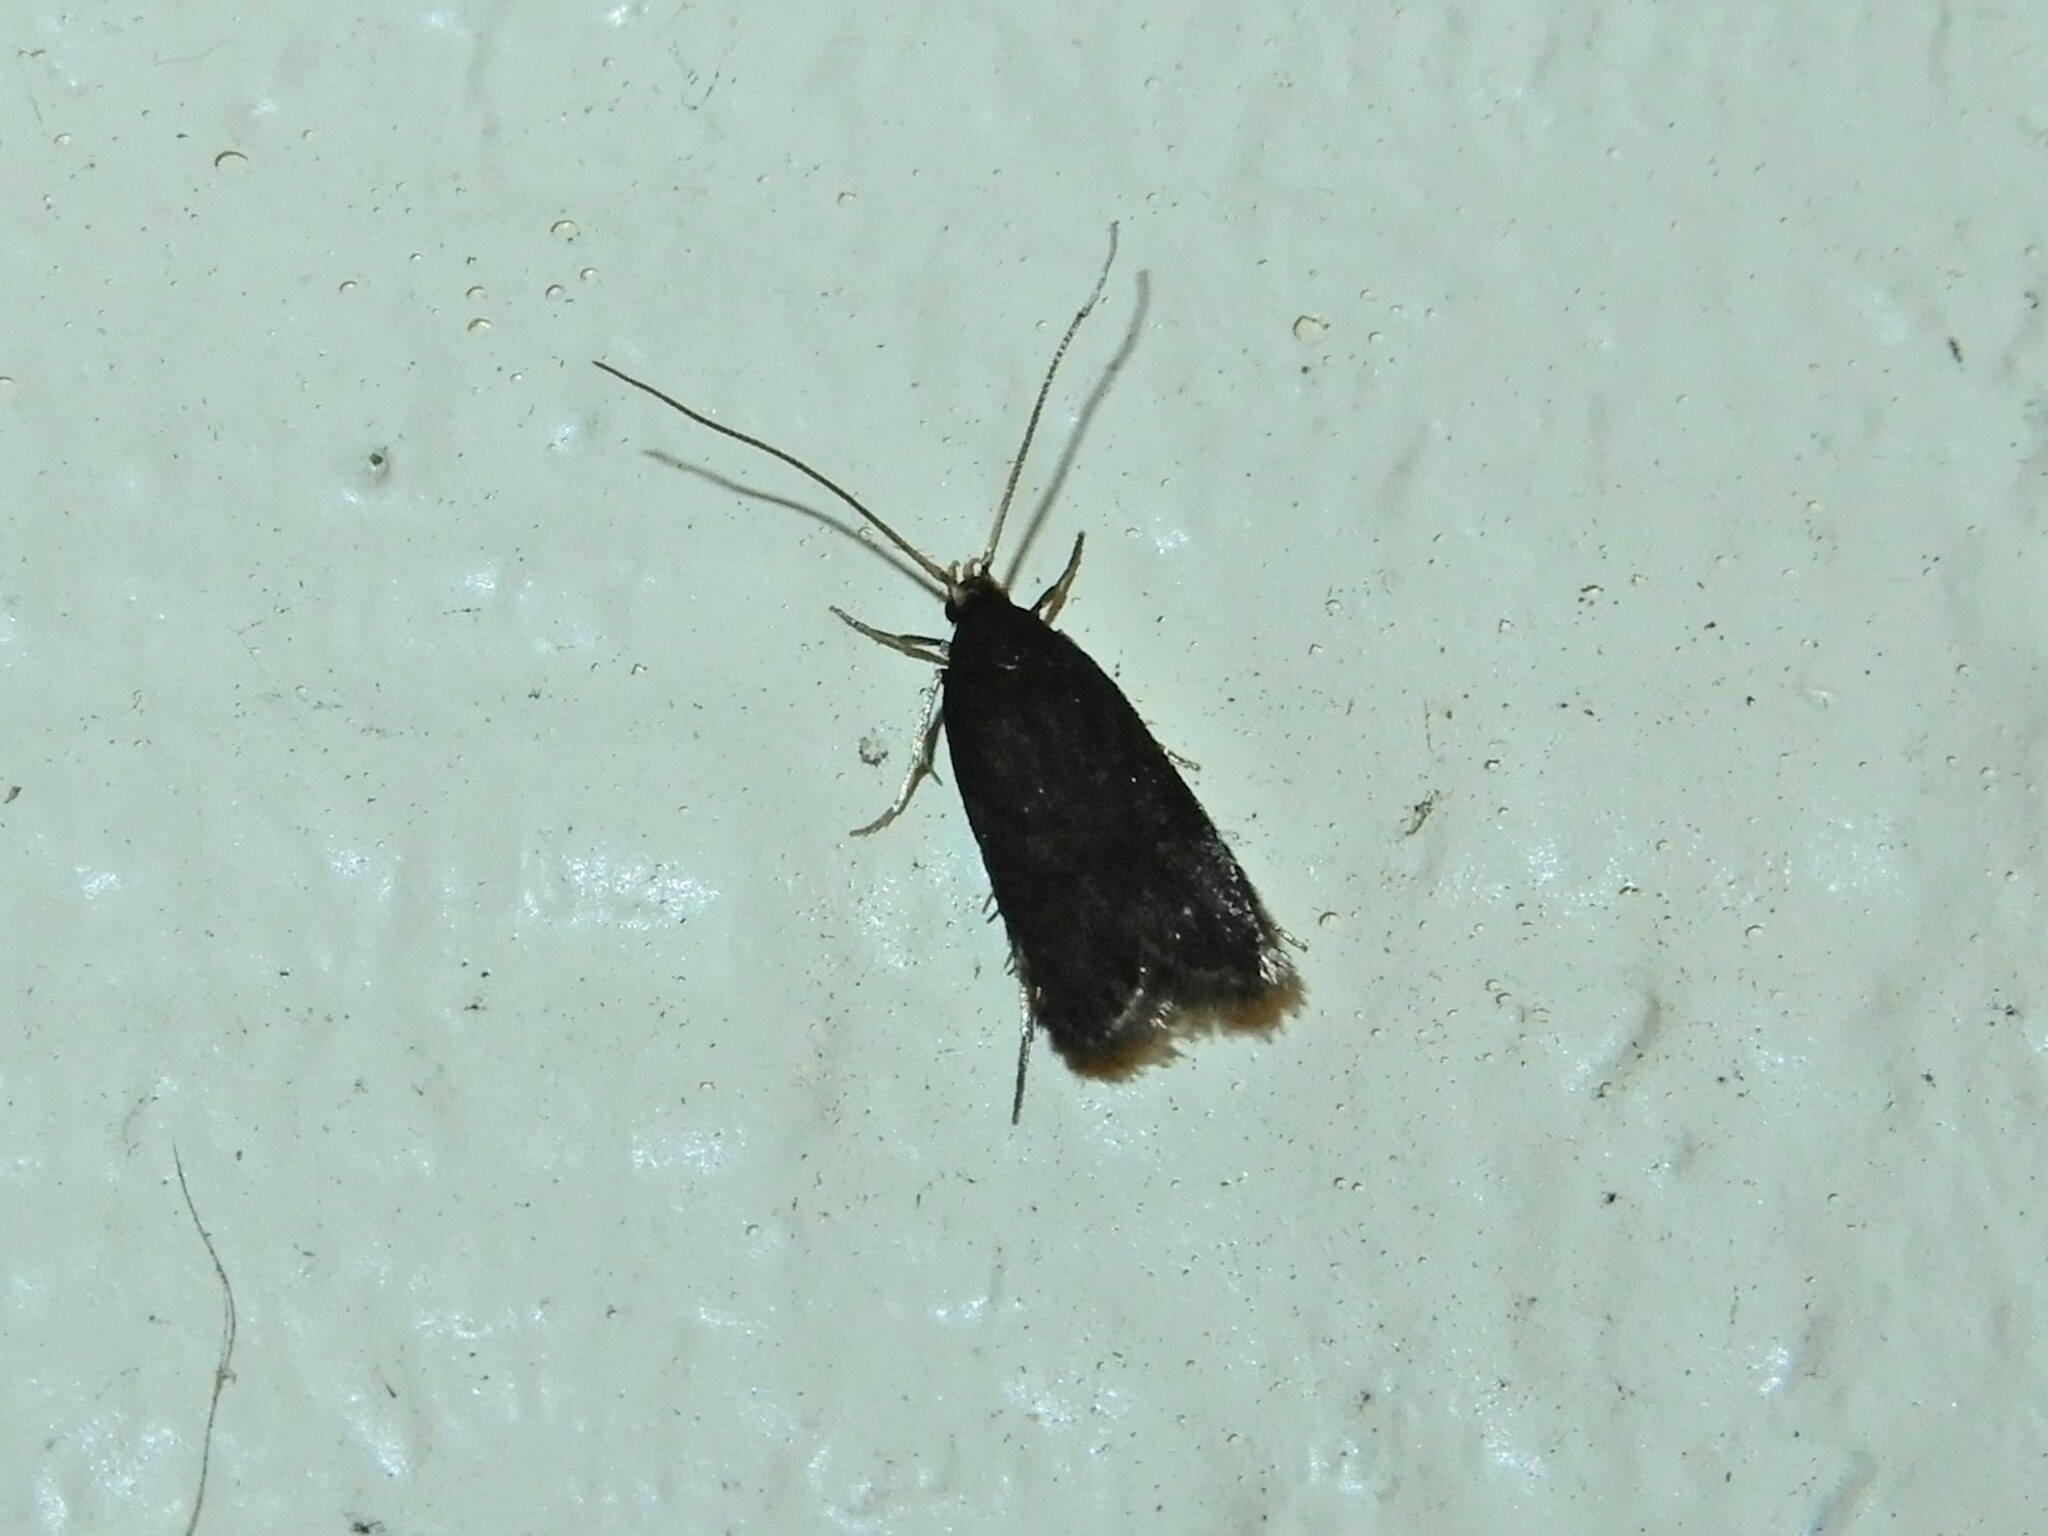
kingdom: Animalia
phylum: Arthropoda
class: Insecta
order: Lepidoptera
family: Lecithoceridae
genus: Lecithocera
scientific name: Lecithocera micromela
